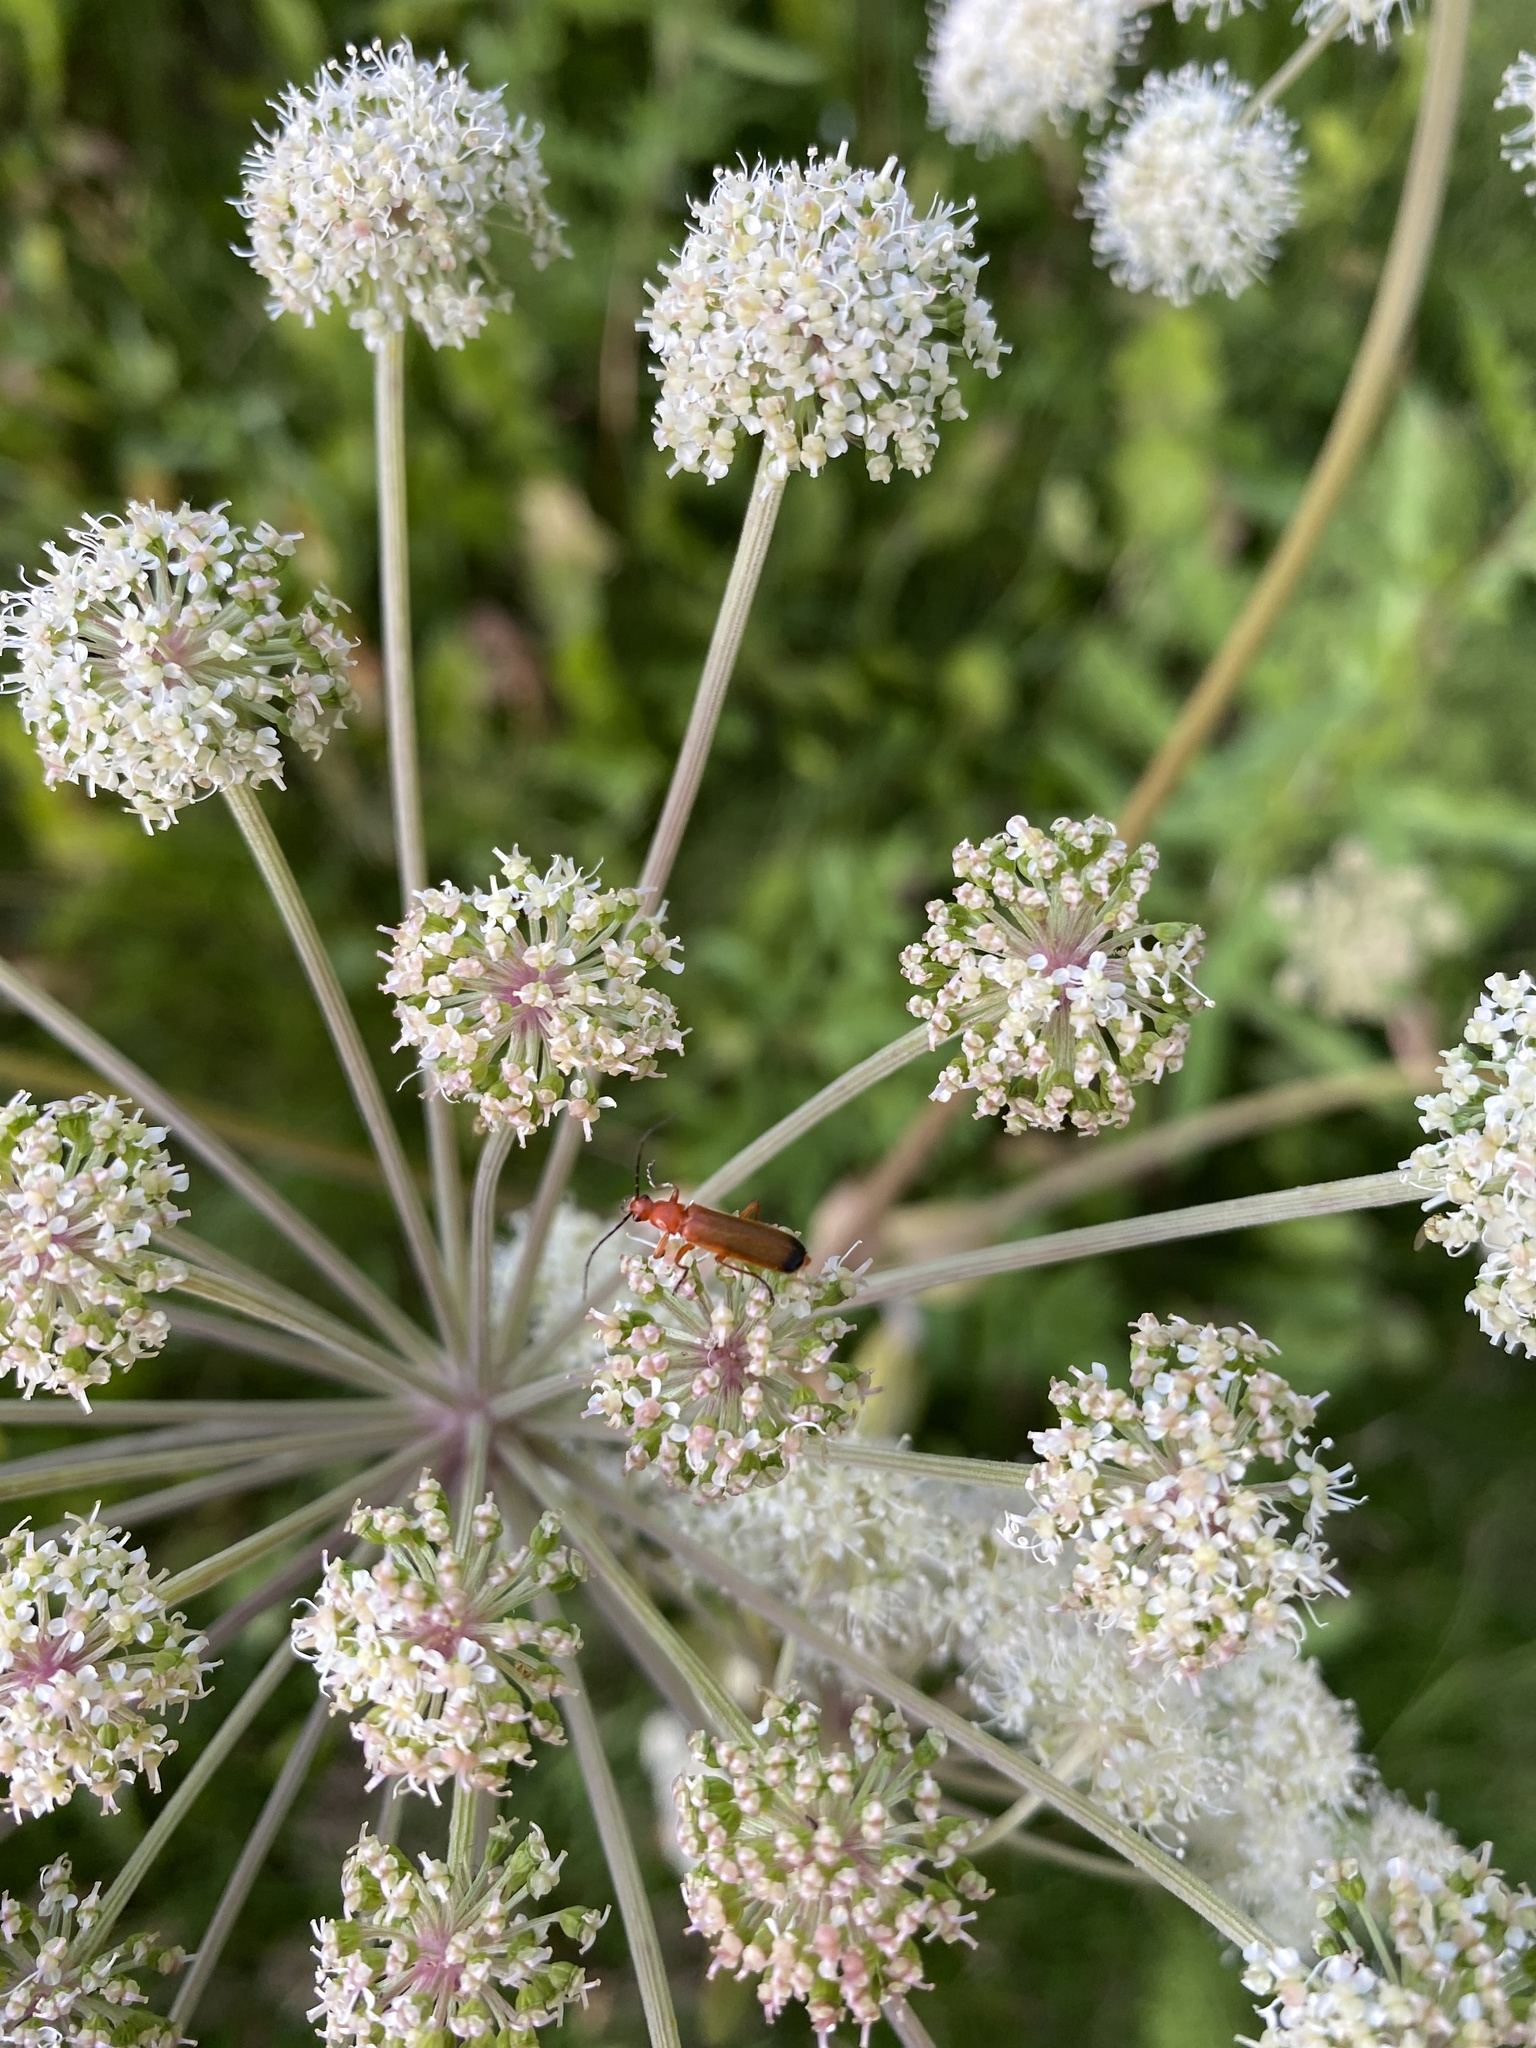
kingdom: Animalia
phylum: Arthropoda
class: Insecta
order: Coleoptera
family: Cantharidae
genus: Rhagonycha
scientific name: Rhagonycha fulva
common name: Common red soldier beetle
